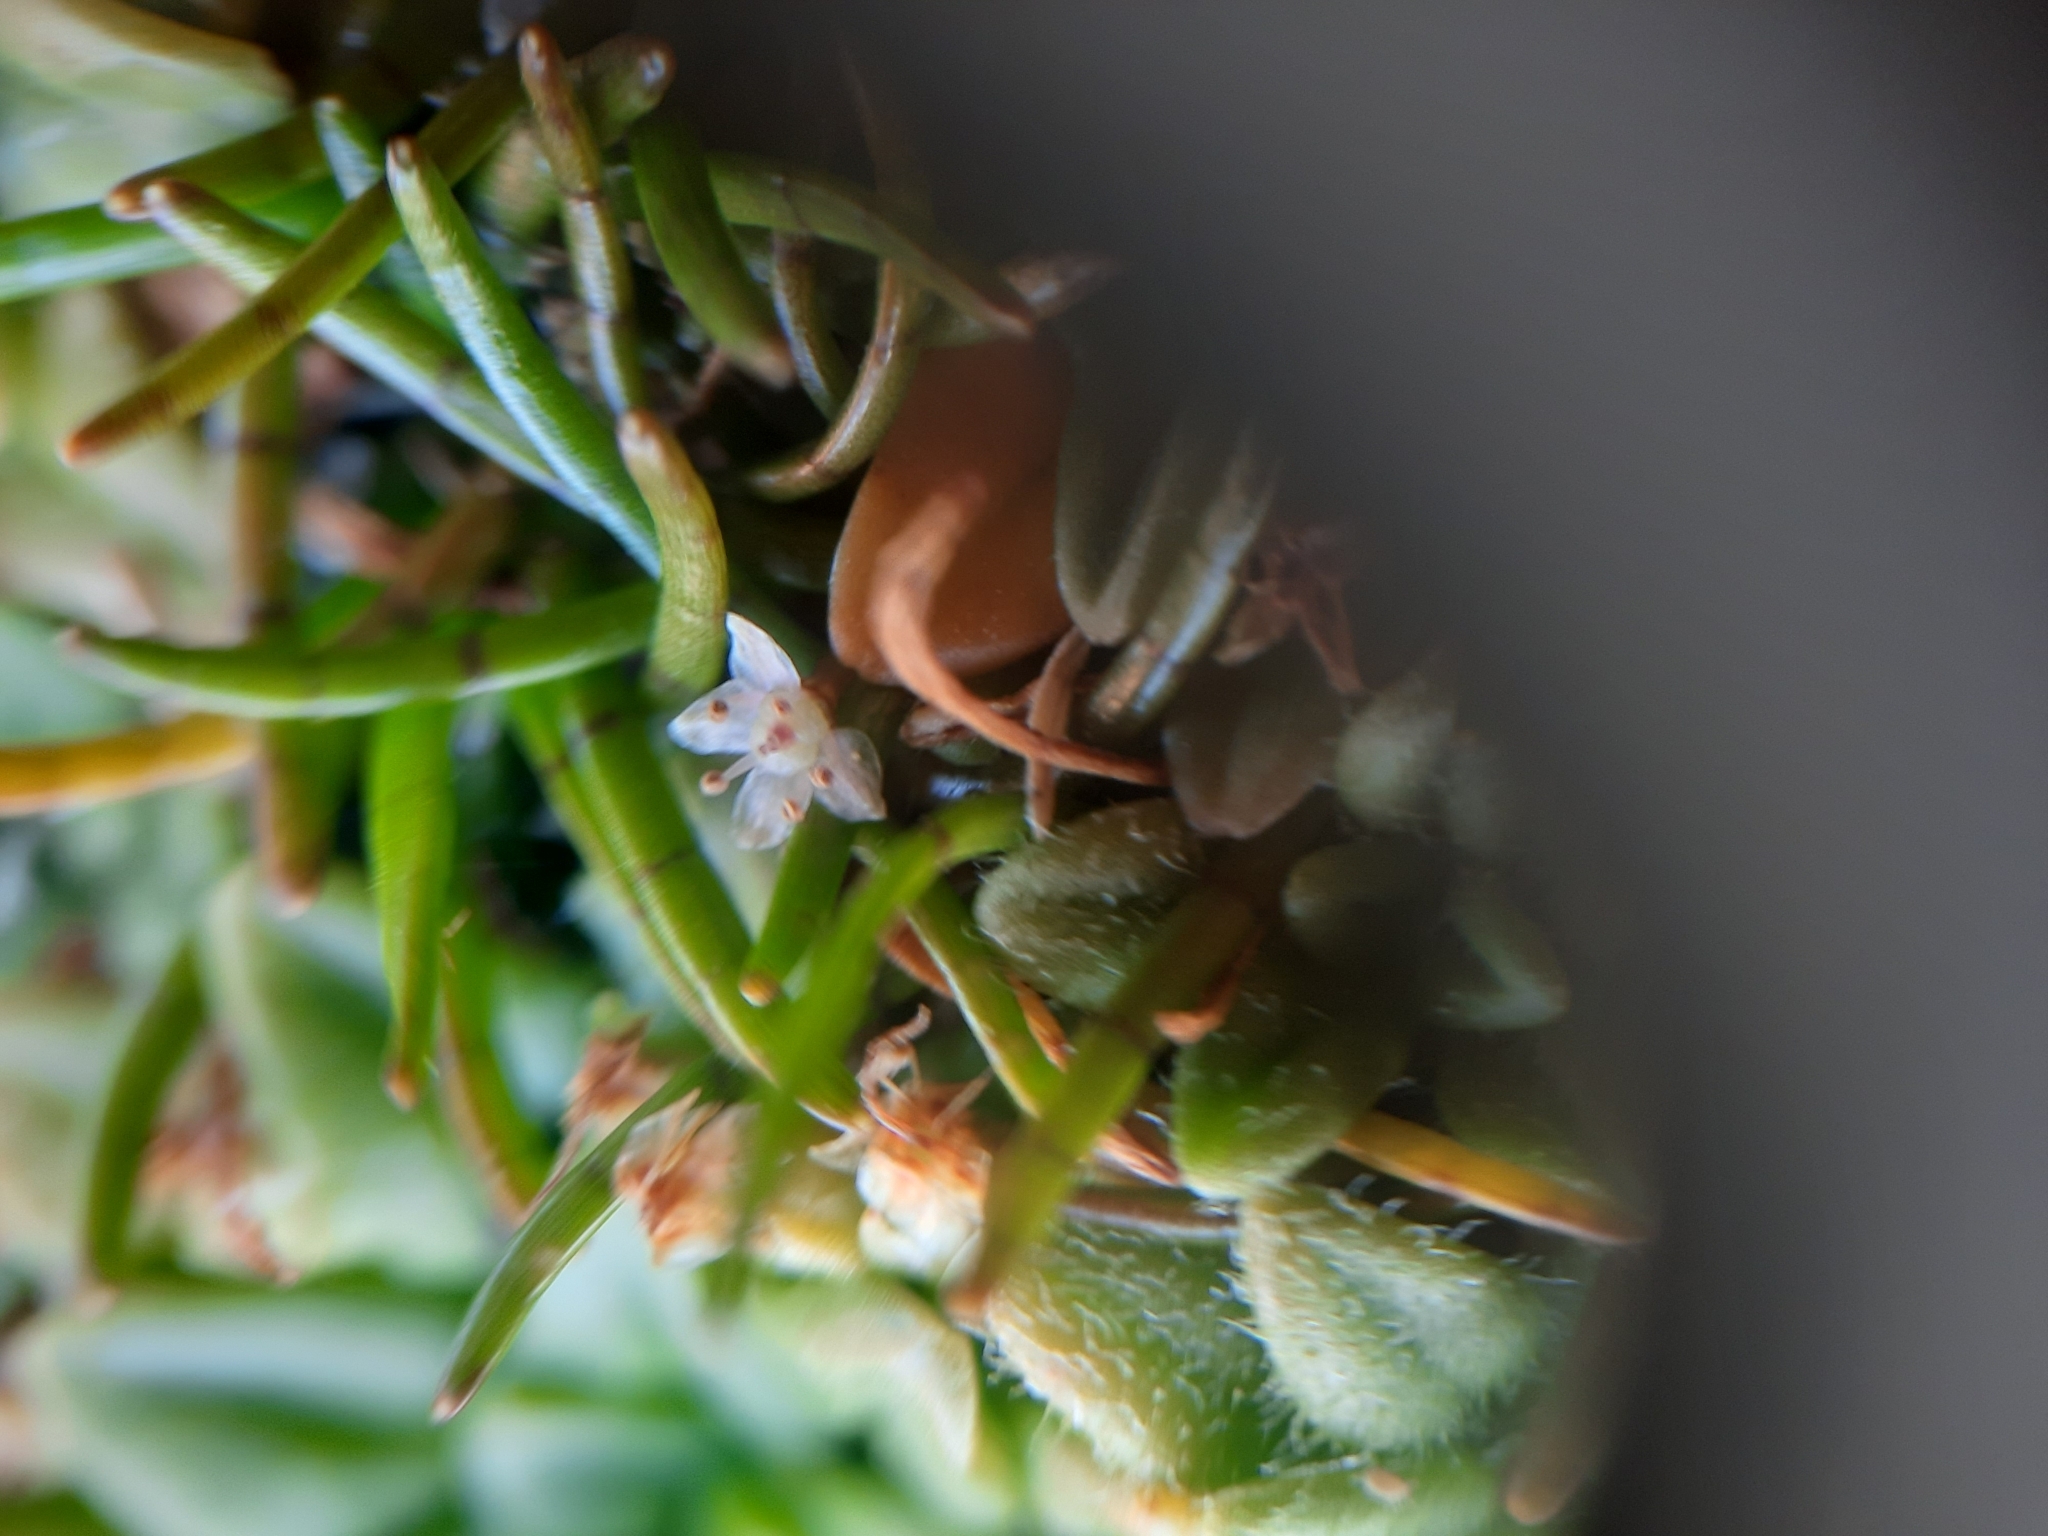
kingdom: Plantae
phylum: Tracheophyta
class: Magnoliopsida
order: Apiales
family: Apiaceae
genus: Lilaeopsis
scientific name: Lilaeopsis novae-zelandiae
